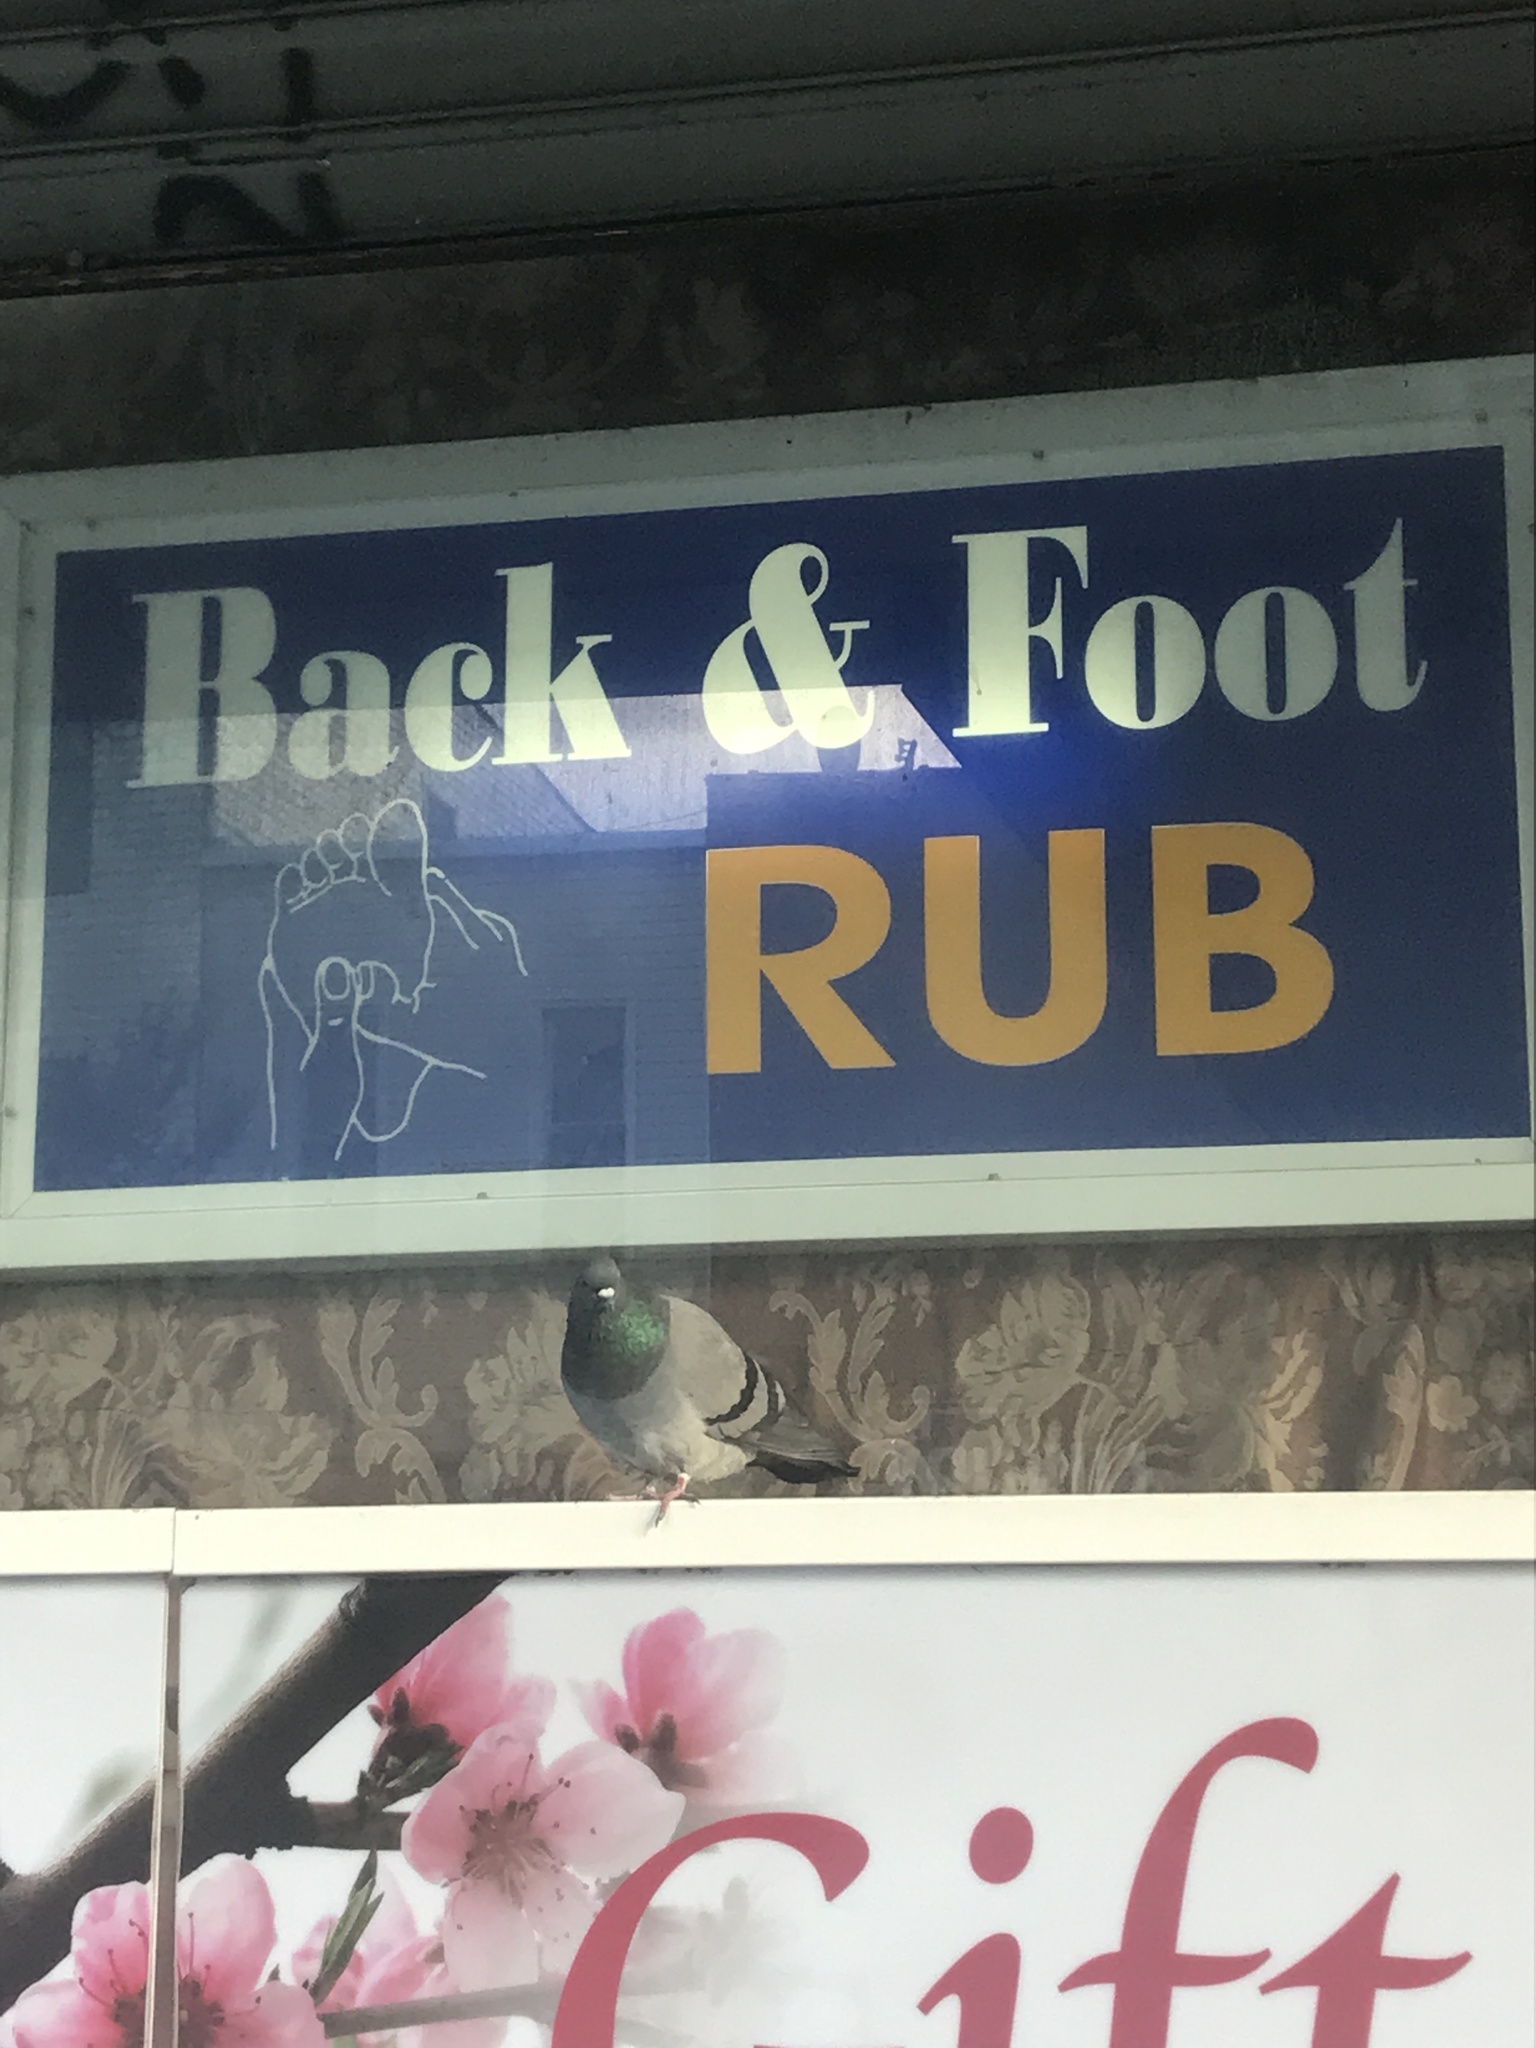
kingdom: Animalia
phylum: Chordata
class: Aves
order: Columbiformes
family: Columbidae
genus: Columba
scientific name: Columba livia
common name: Rock pigeon
